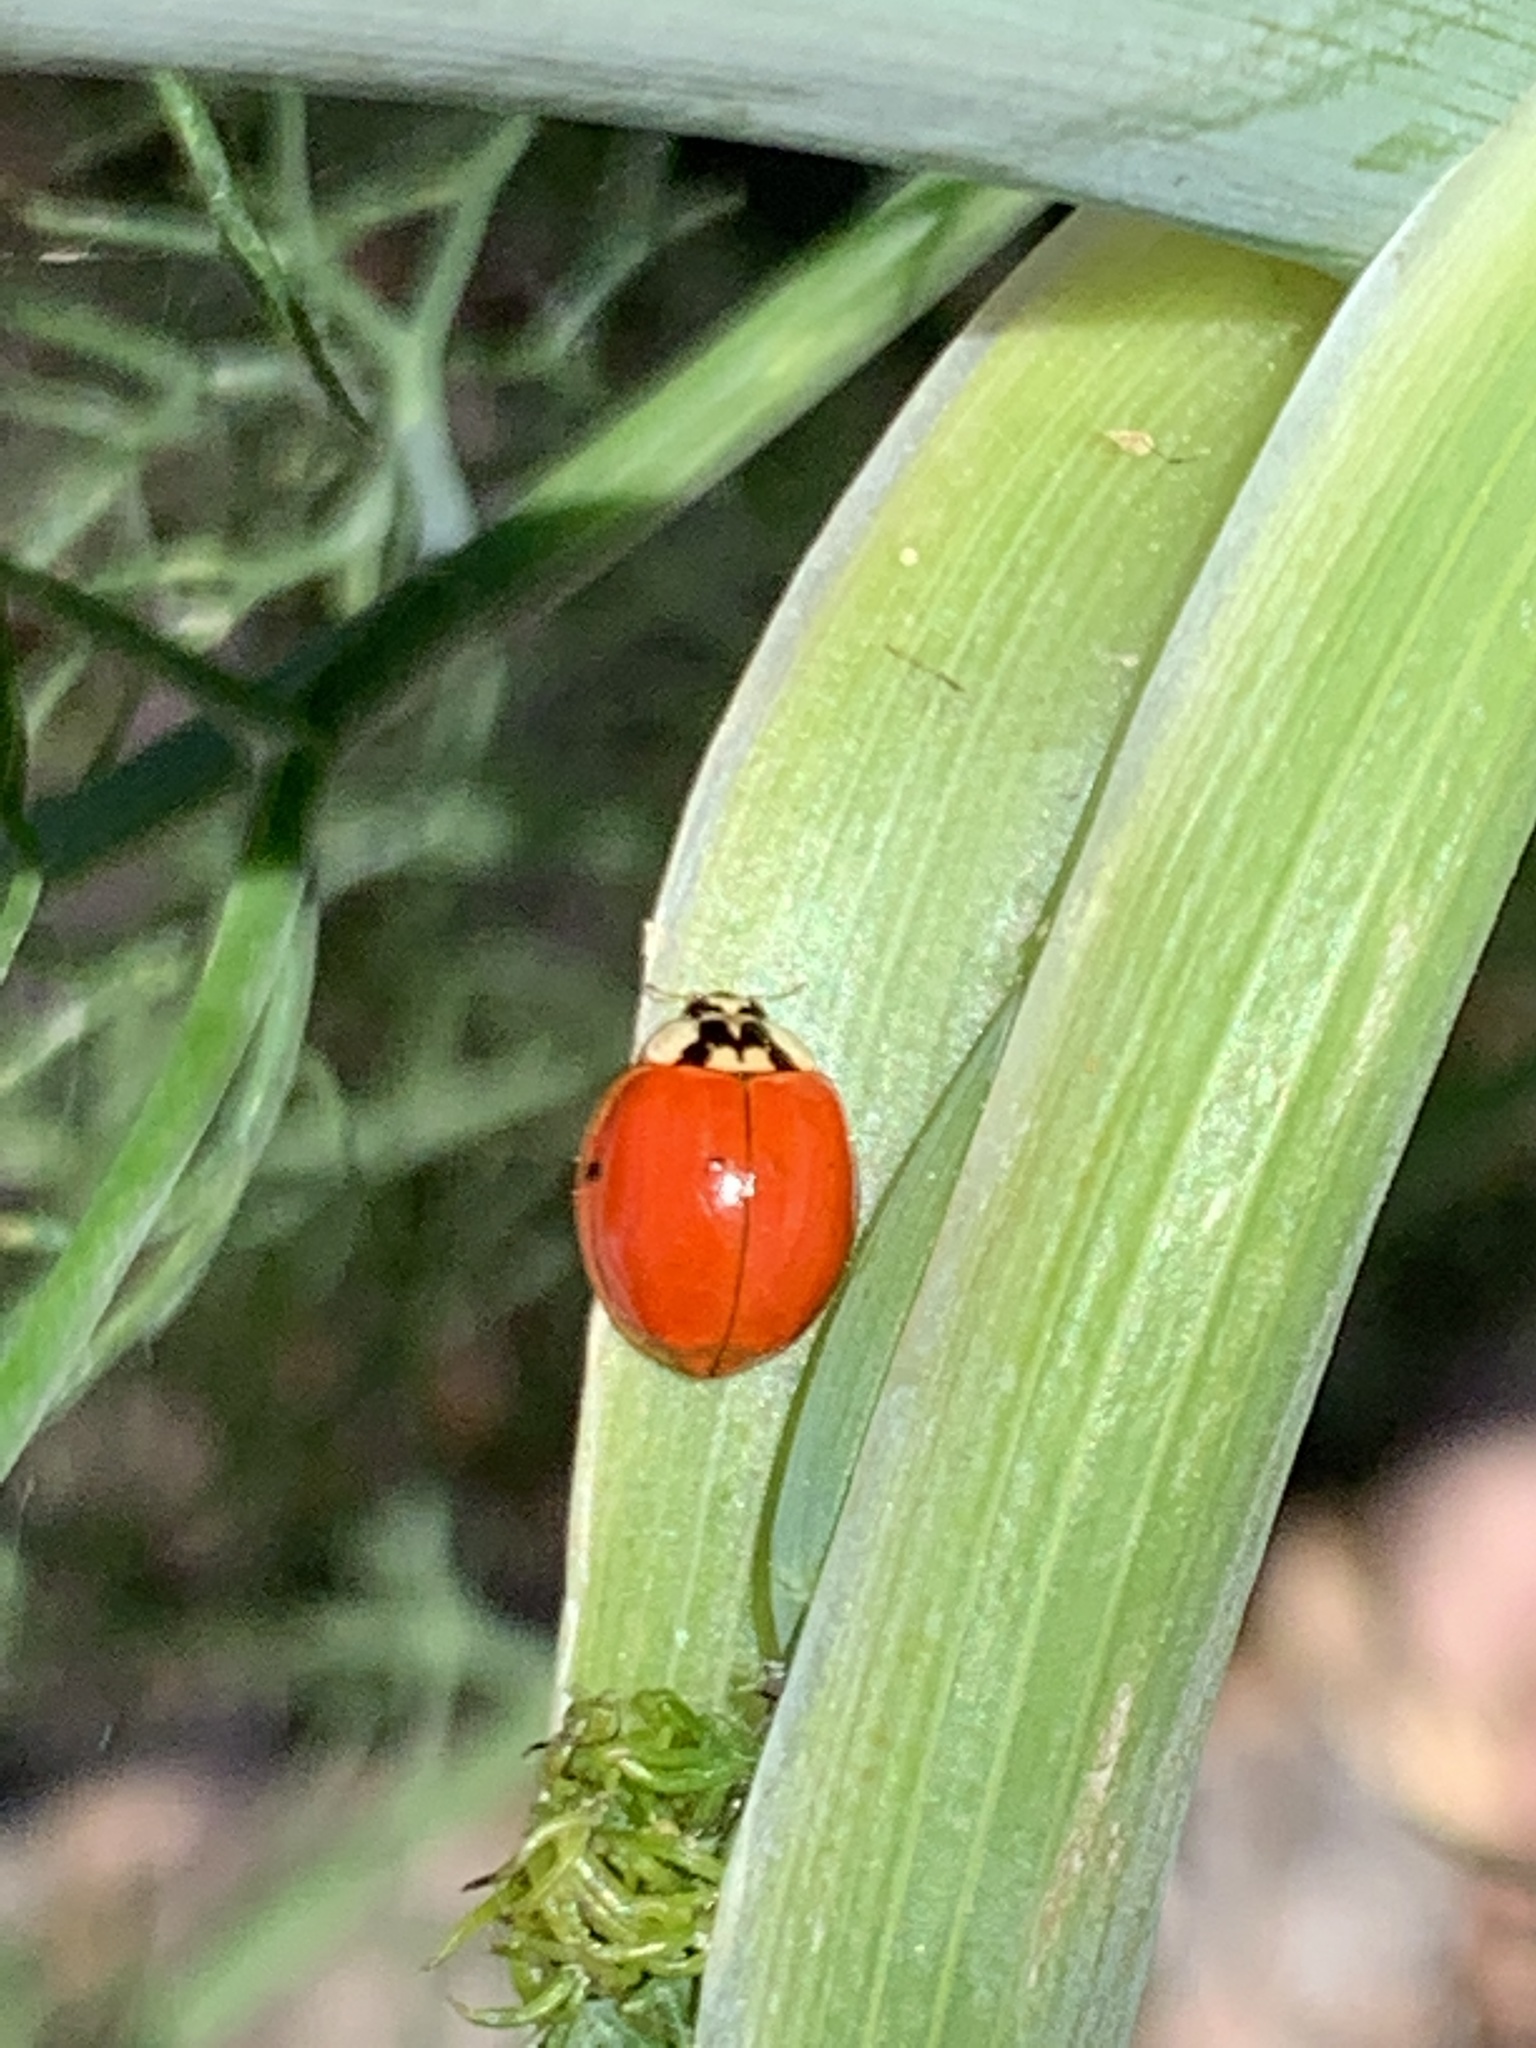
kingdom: Animalia
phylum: Arthropoda
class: Insecta
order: Coleoptera
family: Coccinellidae
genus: Harmonia
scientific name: Harmonia axyridis
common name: Harlequin ladybird
